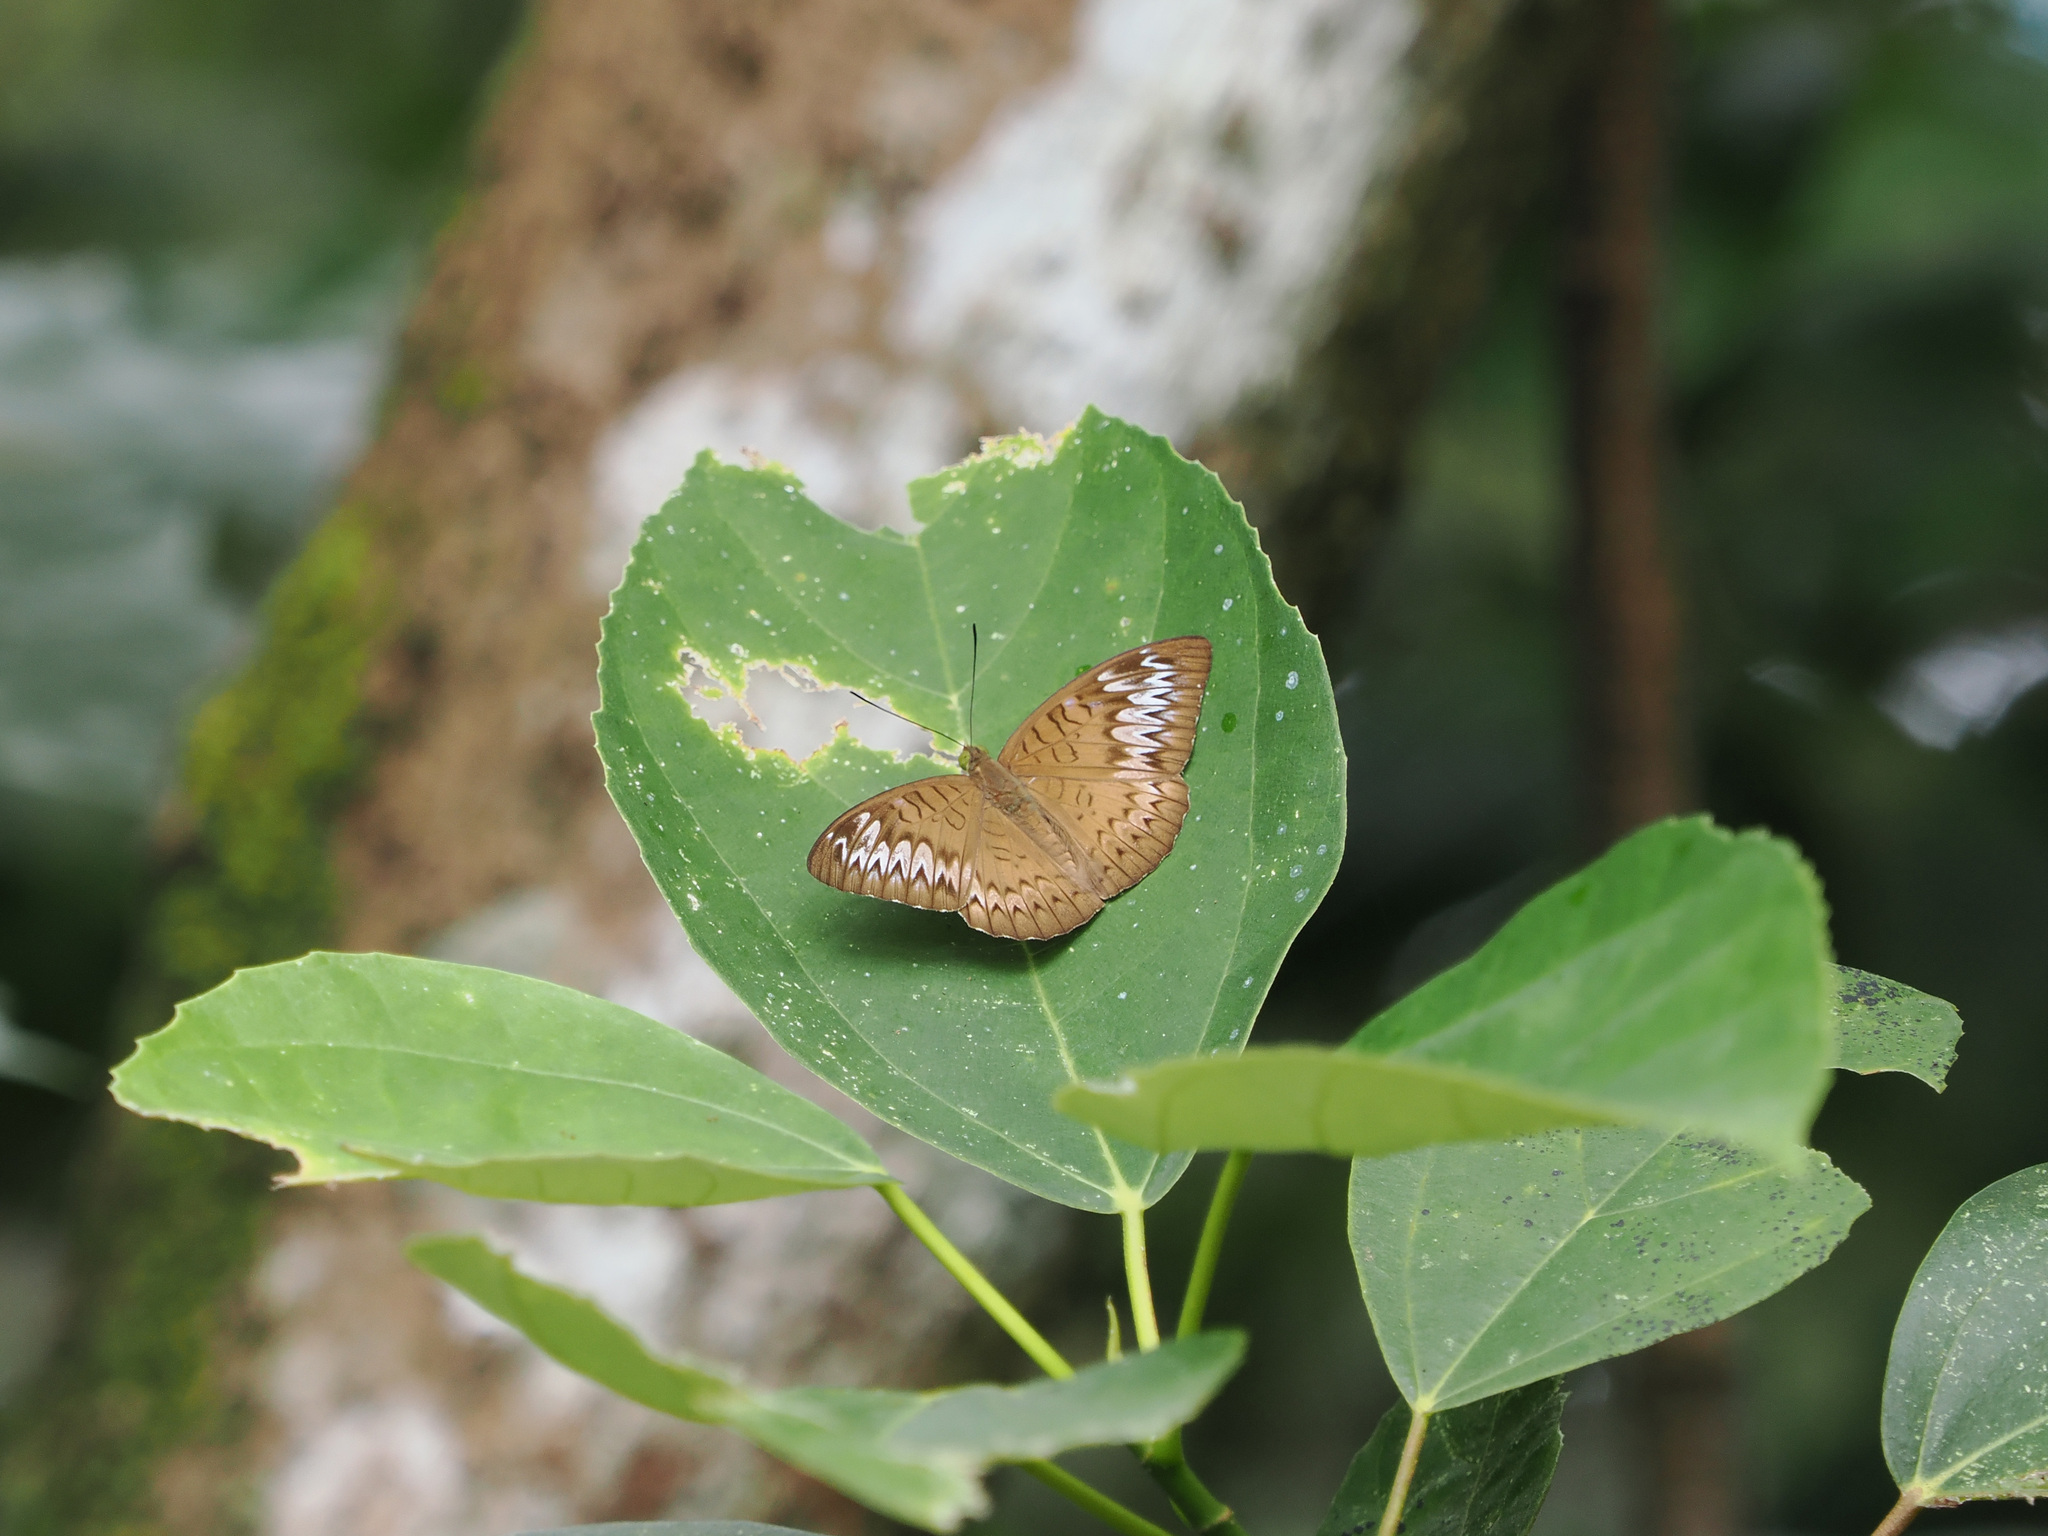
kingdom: Animalia
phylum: Arthropoda
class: Insecta
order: Lepidoptera
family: Nymphalidae
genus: Tanaecia
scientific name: Tanaecia pelea
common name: Malay viscount
